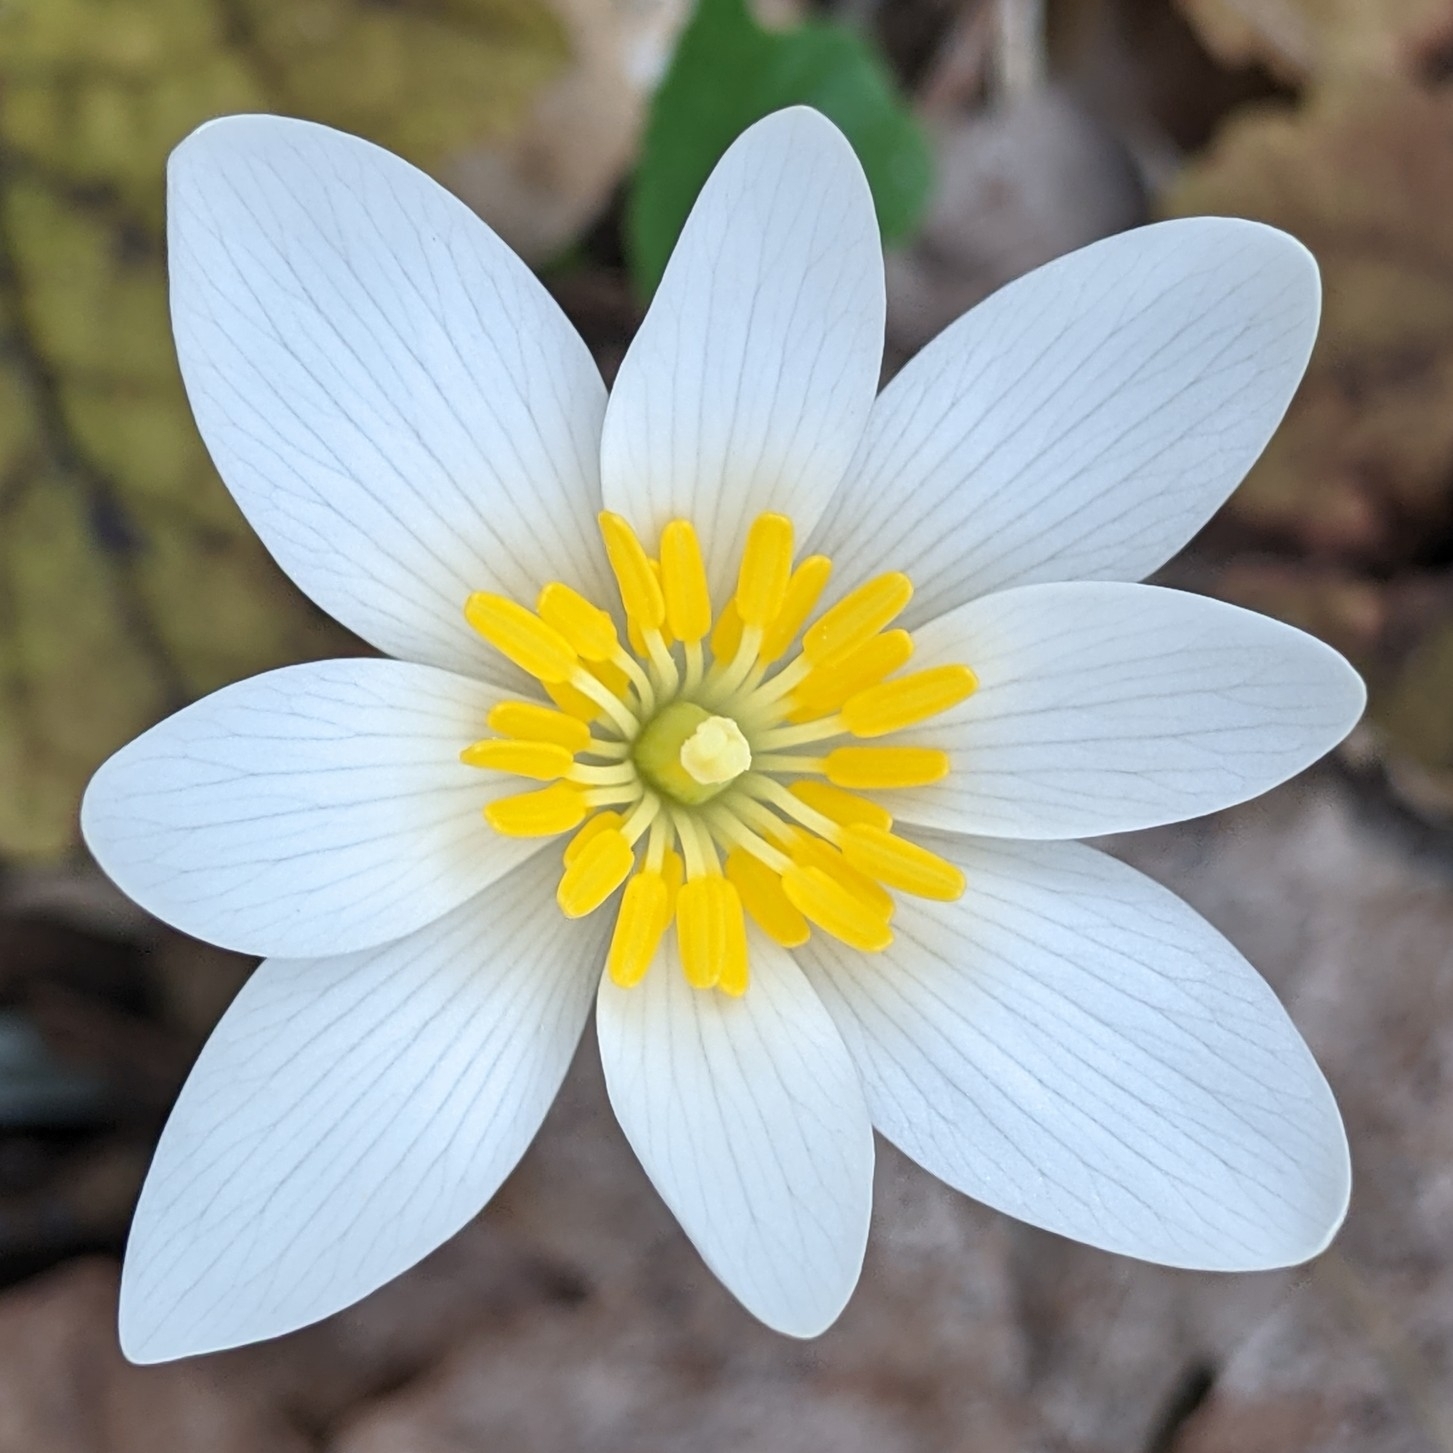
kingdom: Plantae
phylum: Tracheophyta
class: Magnoliopsida
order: Ranunculales
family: Papaveraceae
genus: Sanguinaria
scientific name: Sanguinaria canadensis
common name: Bloodroot
